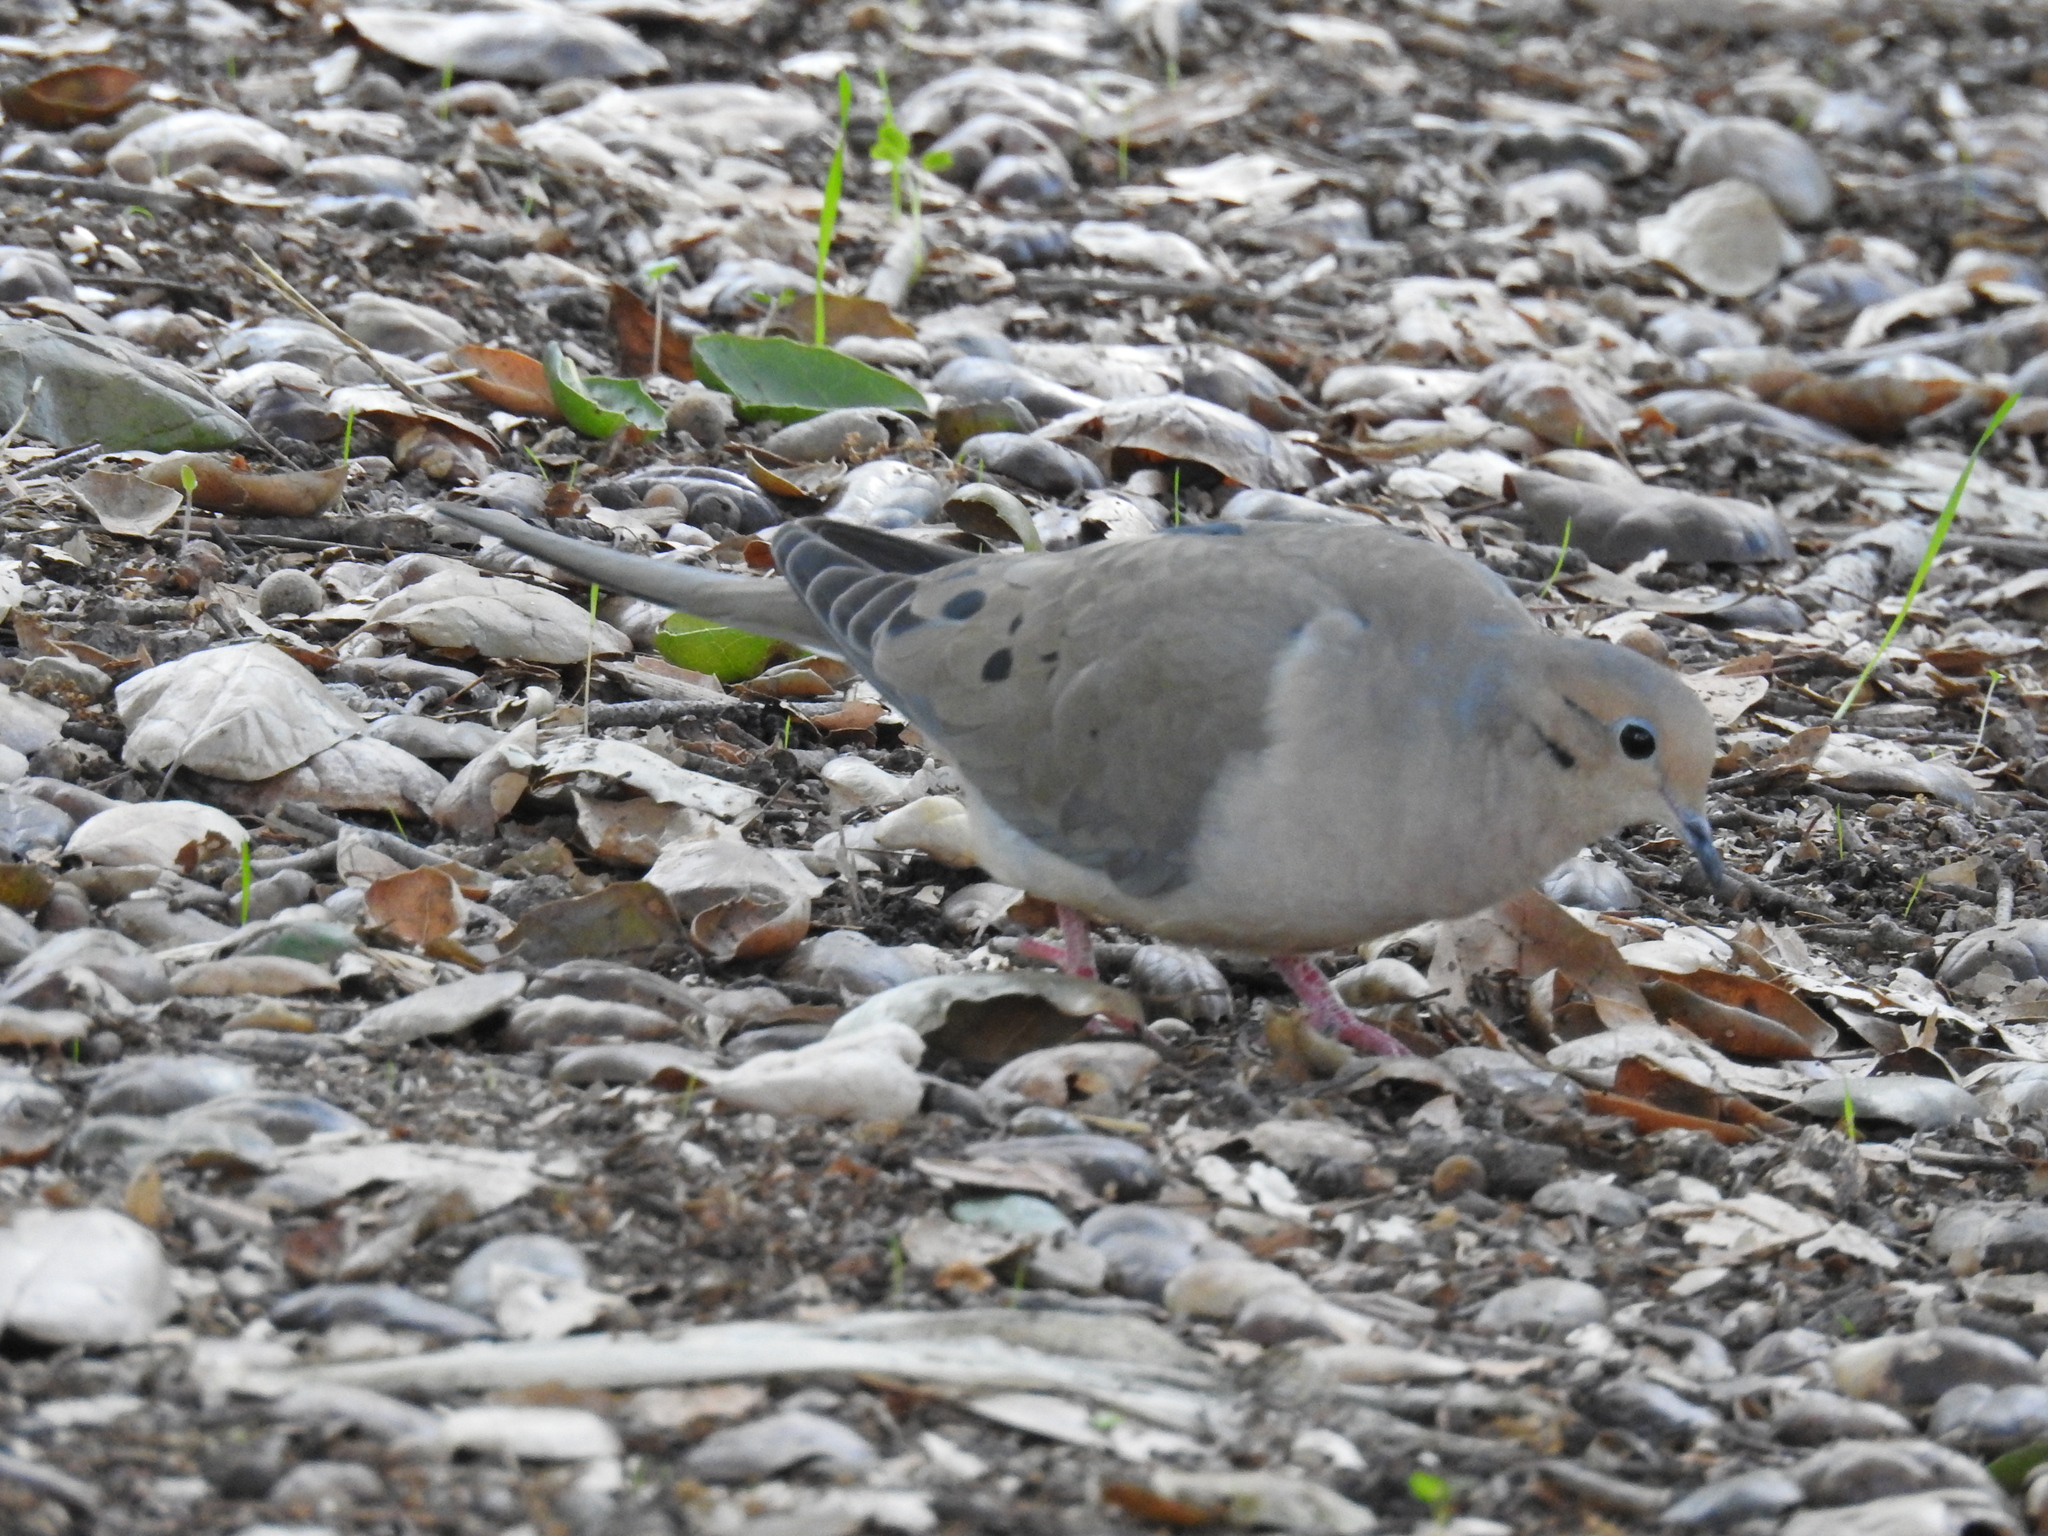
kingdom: Animalia
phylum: Chordata
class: Aves
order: Columbiformes
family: Columbidae
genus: Zenaida
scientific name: Zenaida macroura
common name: Mourning dove
